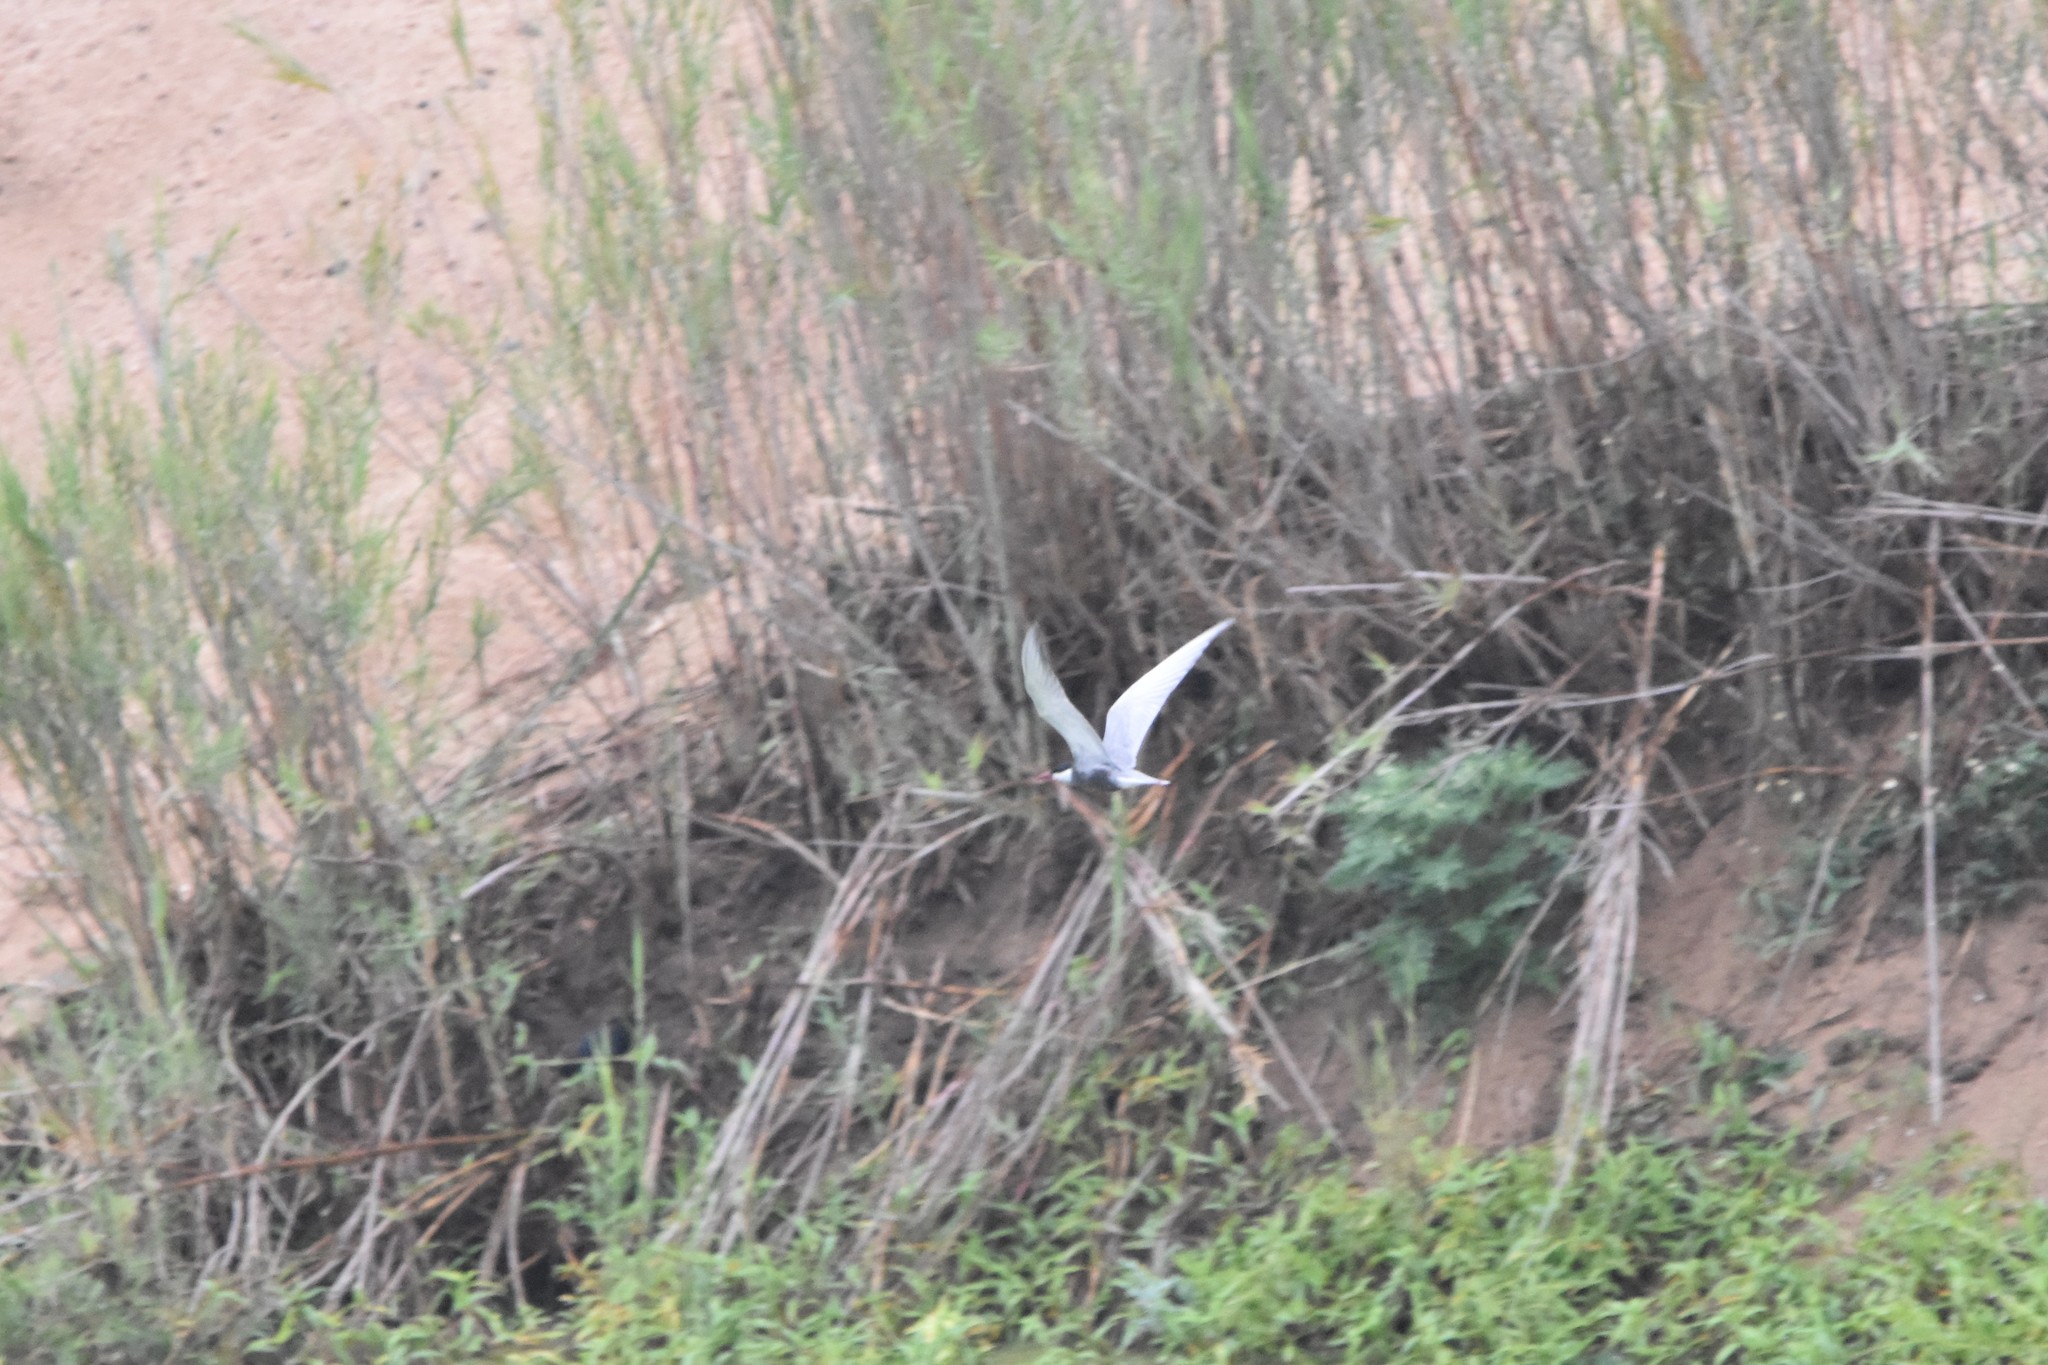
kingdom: Animalia
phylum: Chordata
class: Aves
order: Charadriiformes
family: Laridae
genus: Chlidonias
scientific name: Chlidonias hybrida
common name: Whiskered tern
